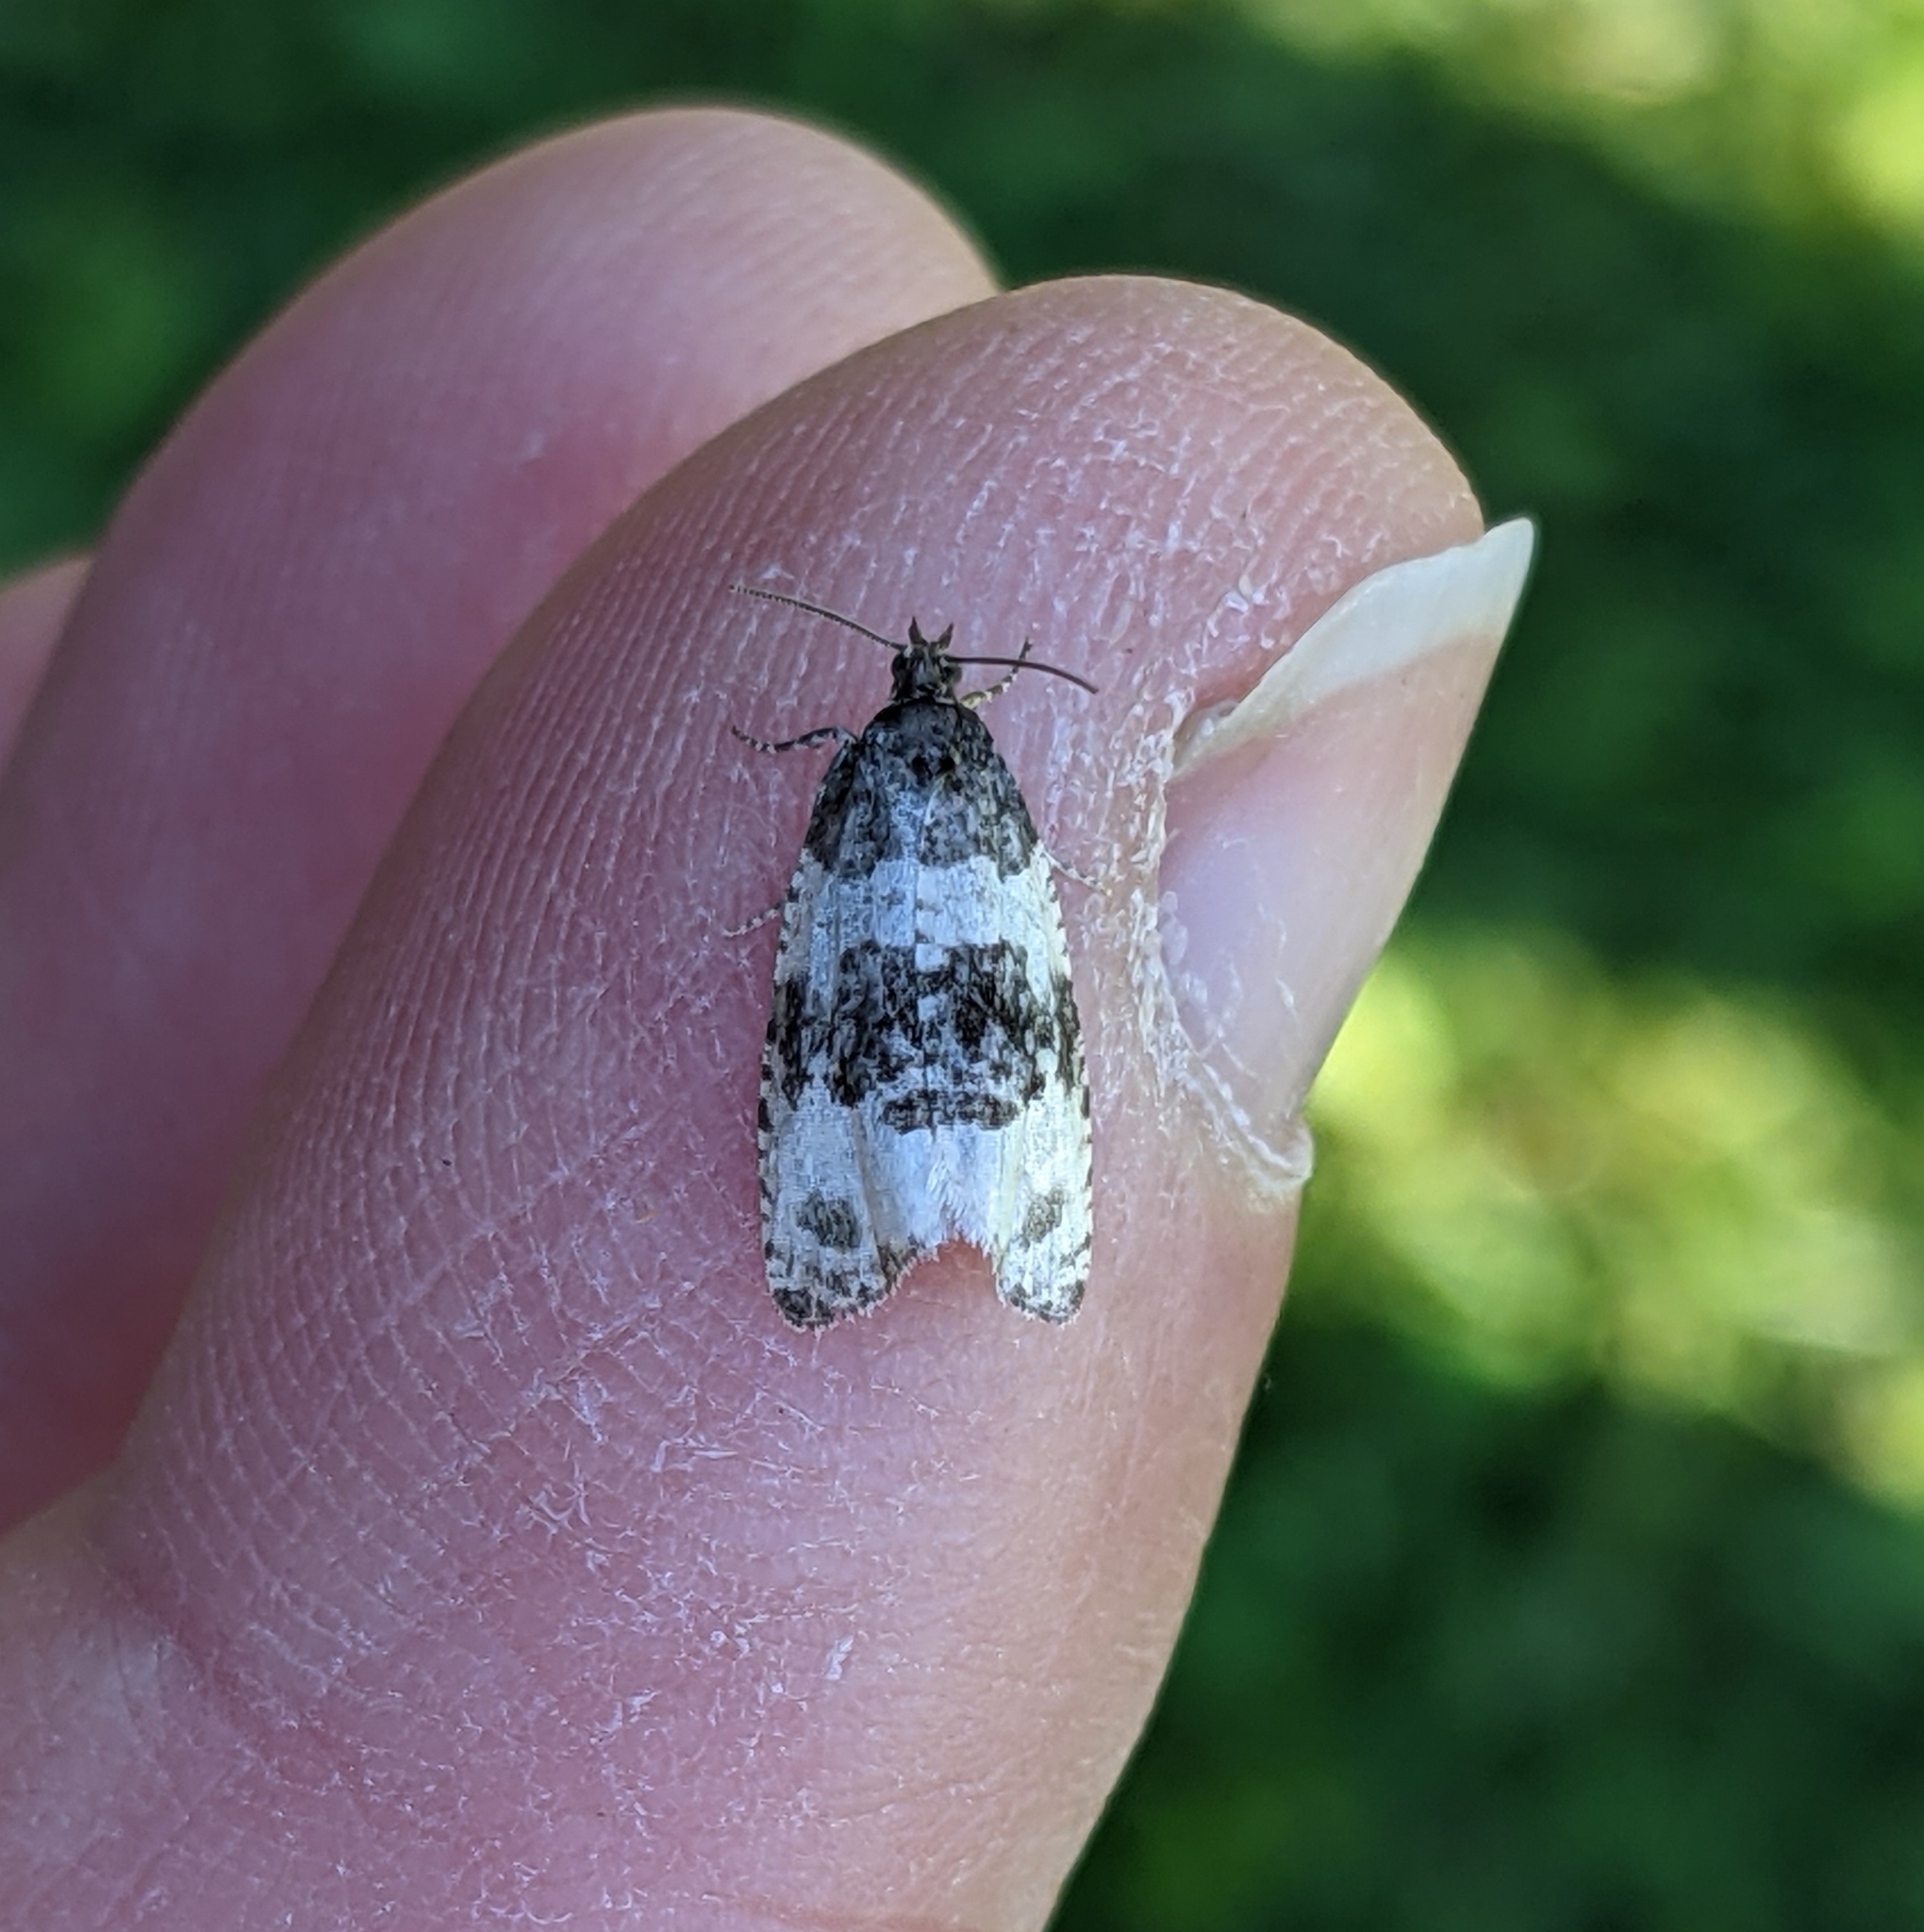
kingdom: Animalia
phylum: Arthropoda
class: Insecta
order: Lepidoptera
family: Tortricidae
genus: Olethreutes
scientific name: Olethreutes bipartitana
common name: Divided olethreutes moth
